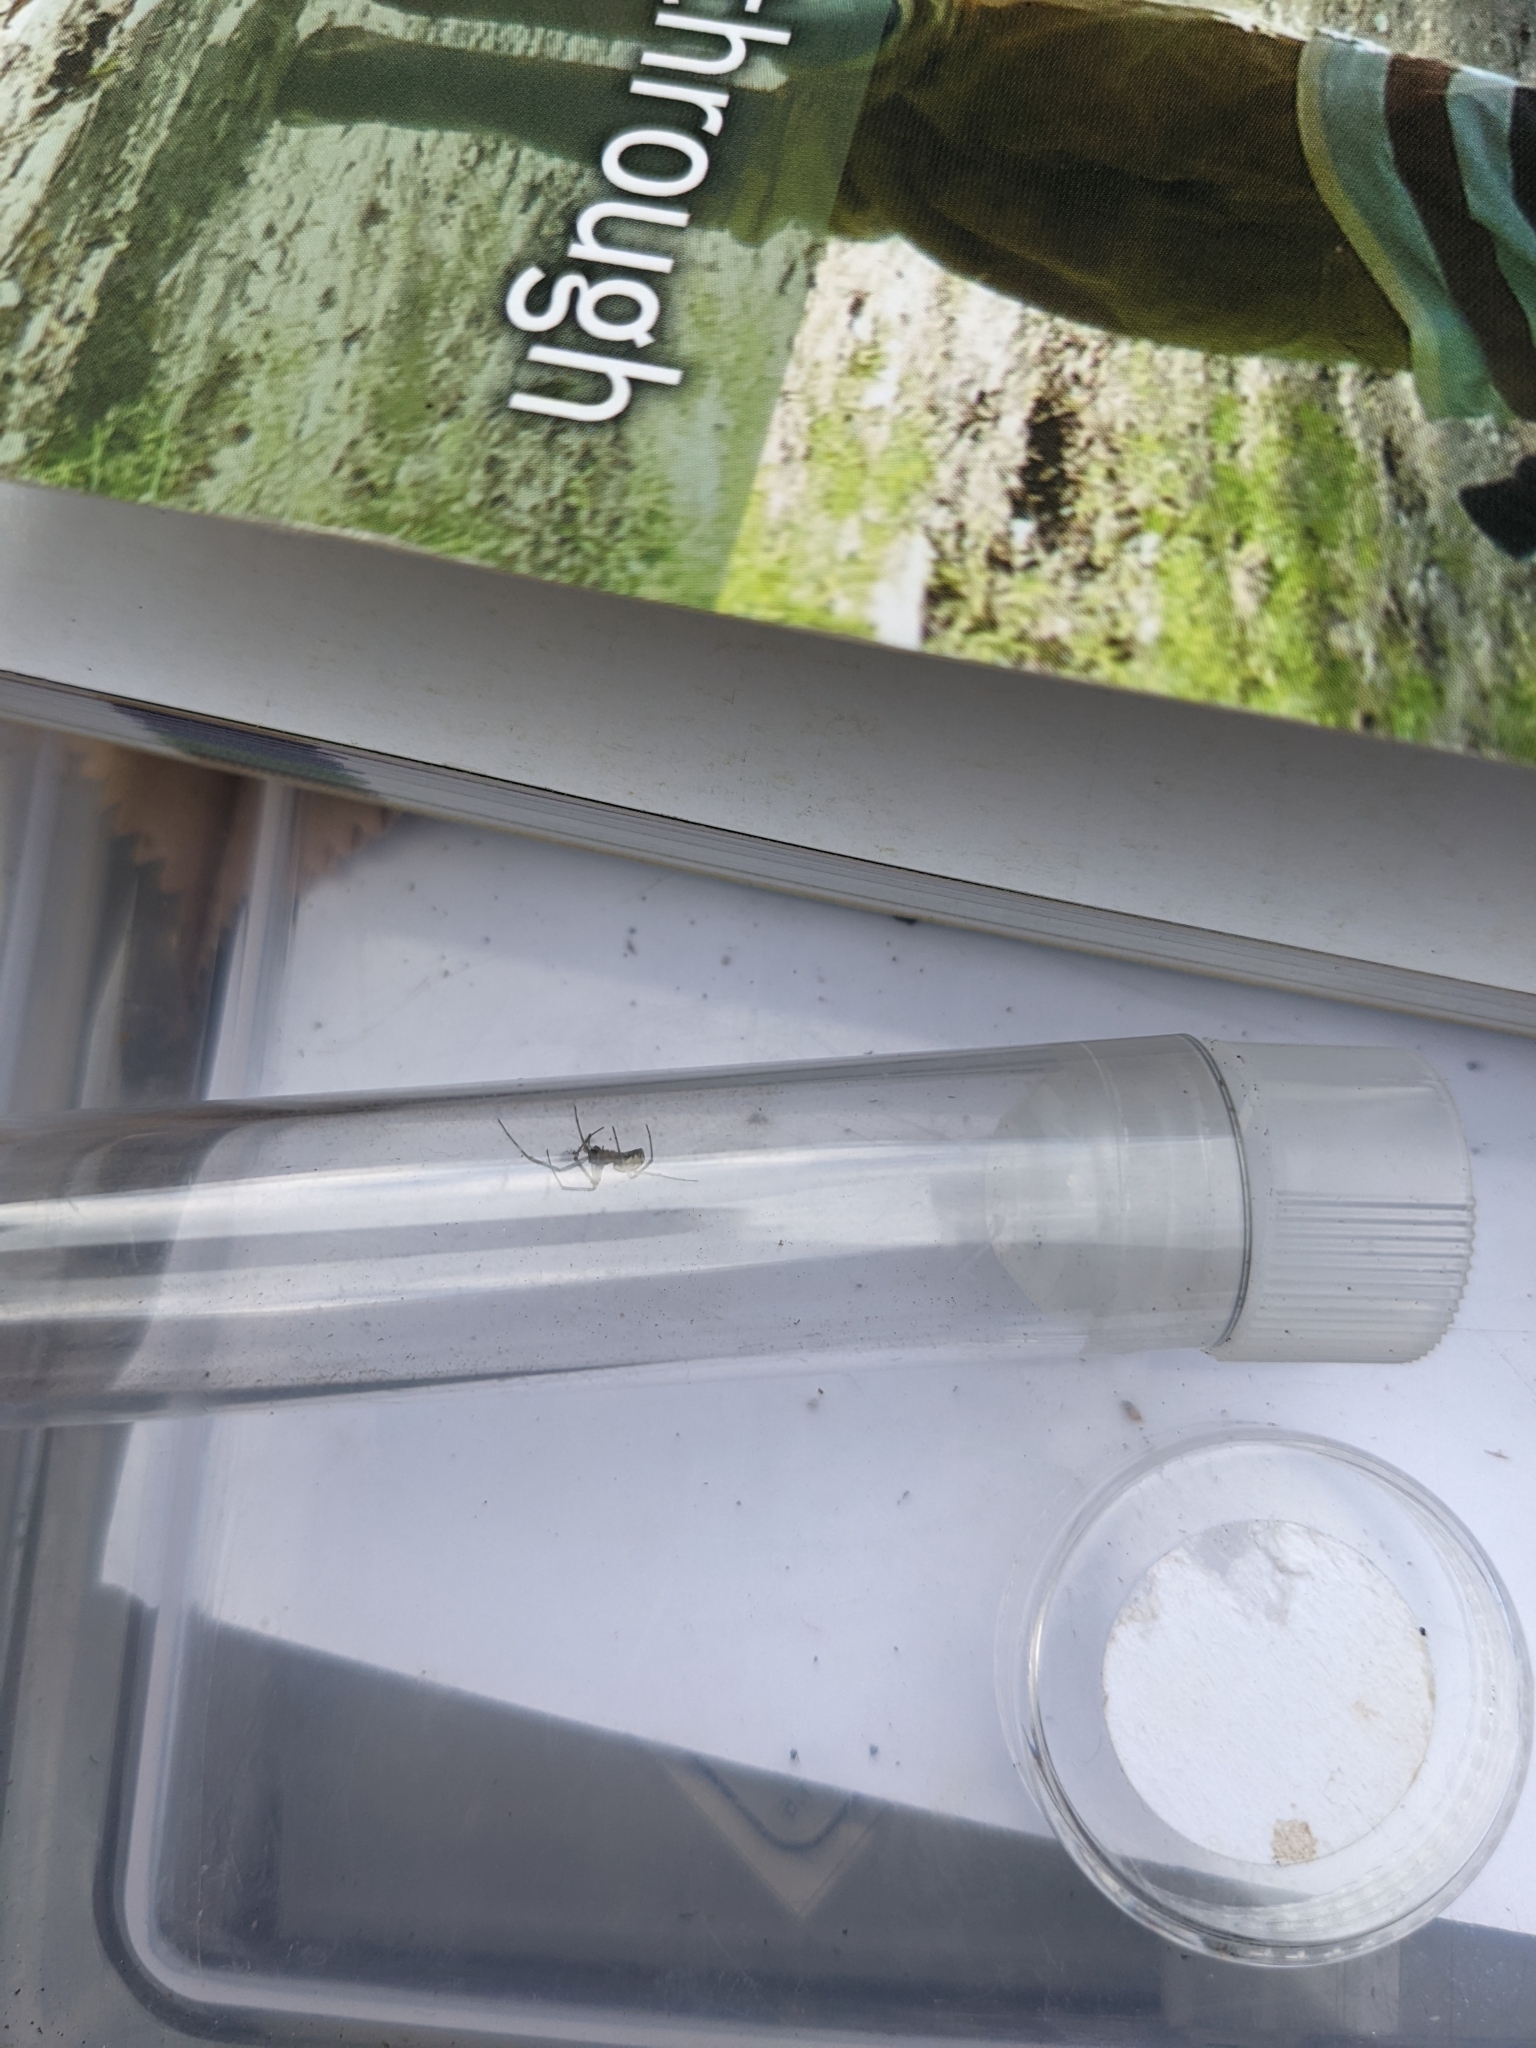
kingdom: Animalia
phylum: Arthropoda
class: Arachnida
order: Araneae
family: Linyphiidae
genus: Neriene
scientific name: Neriene peltata
